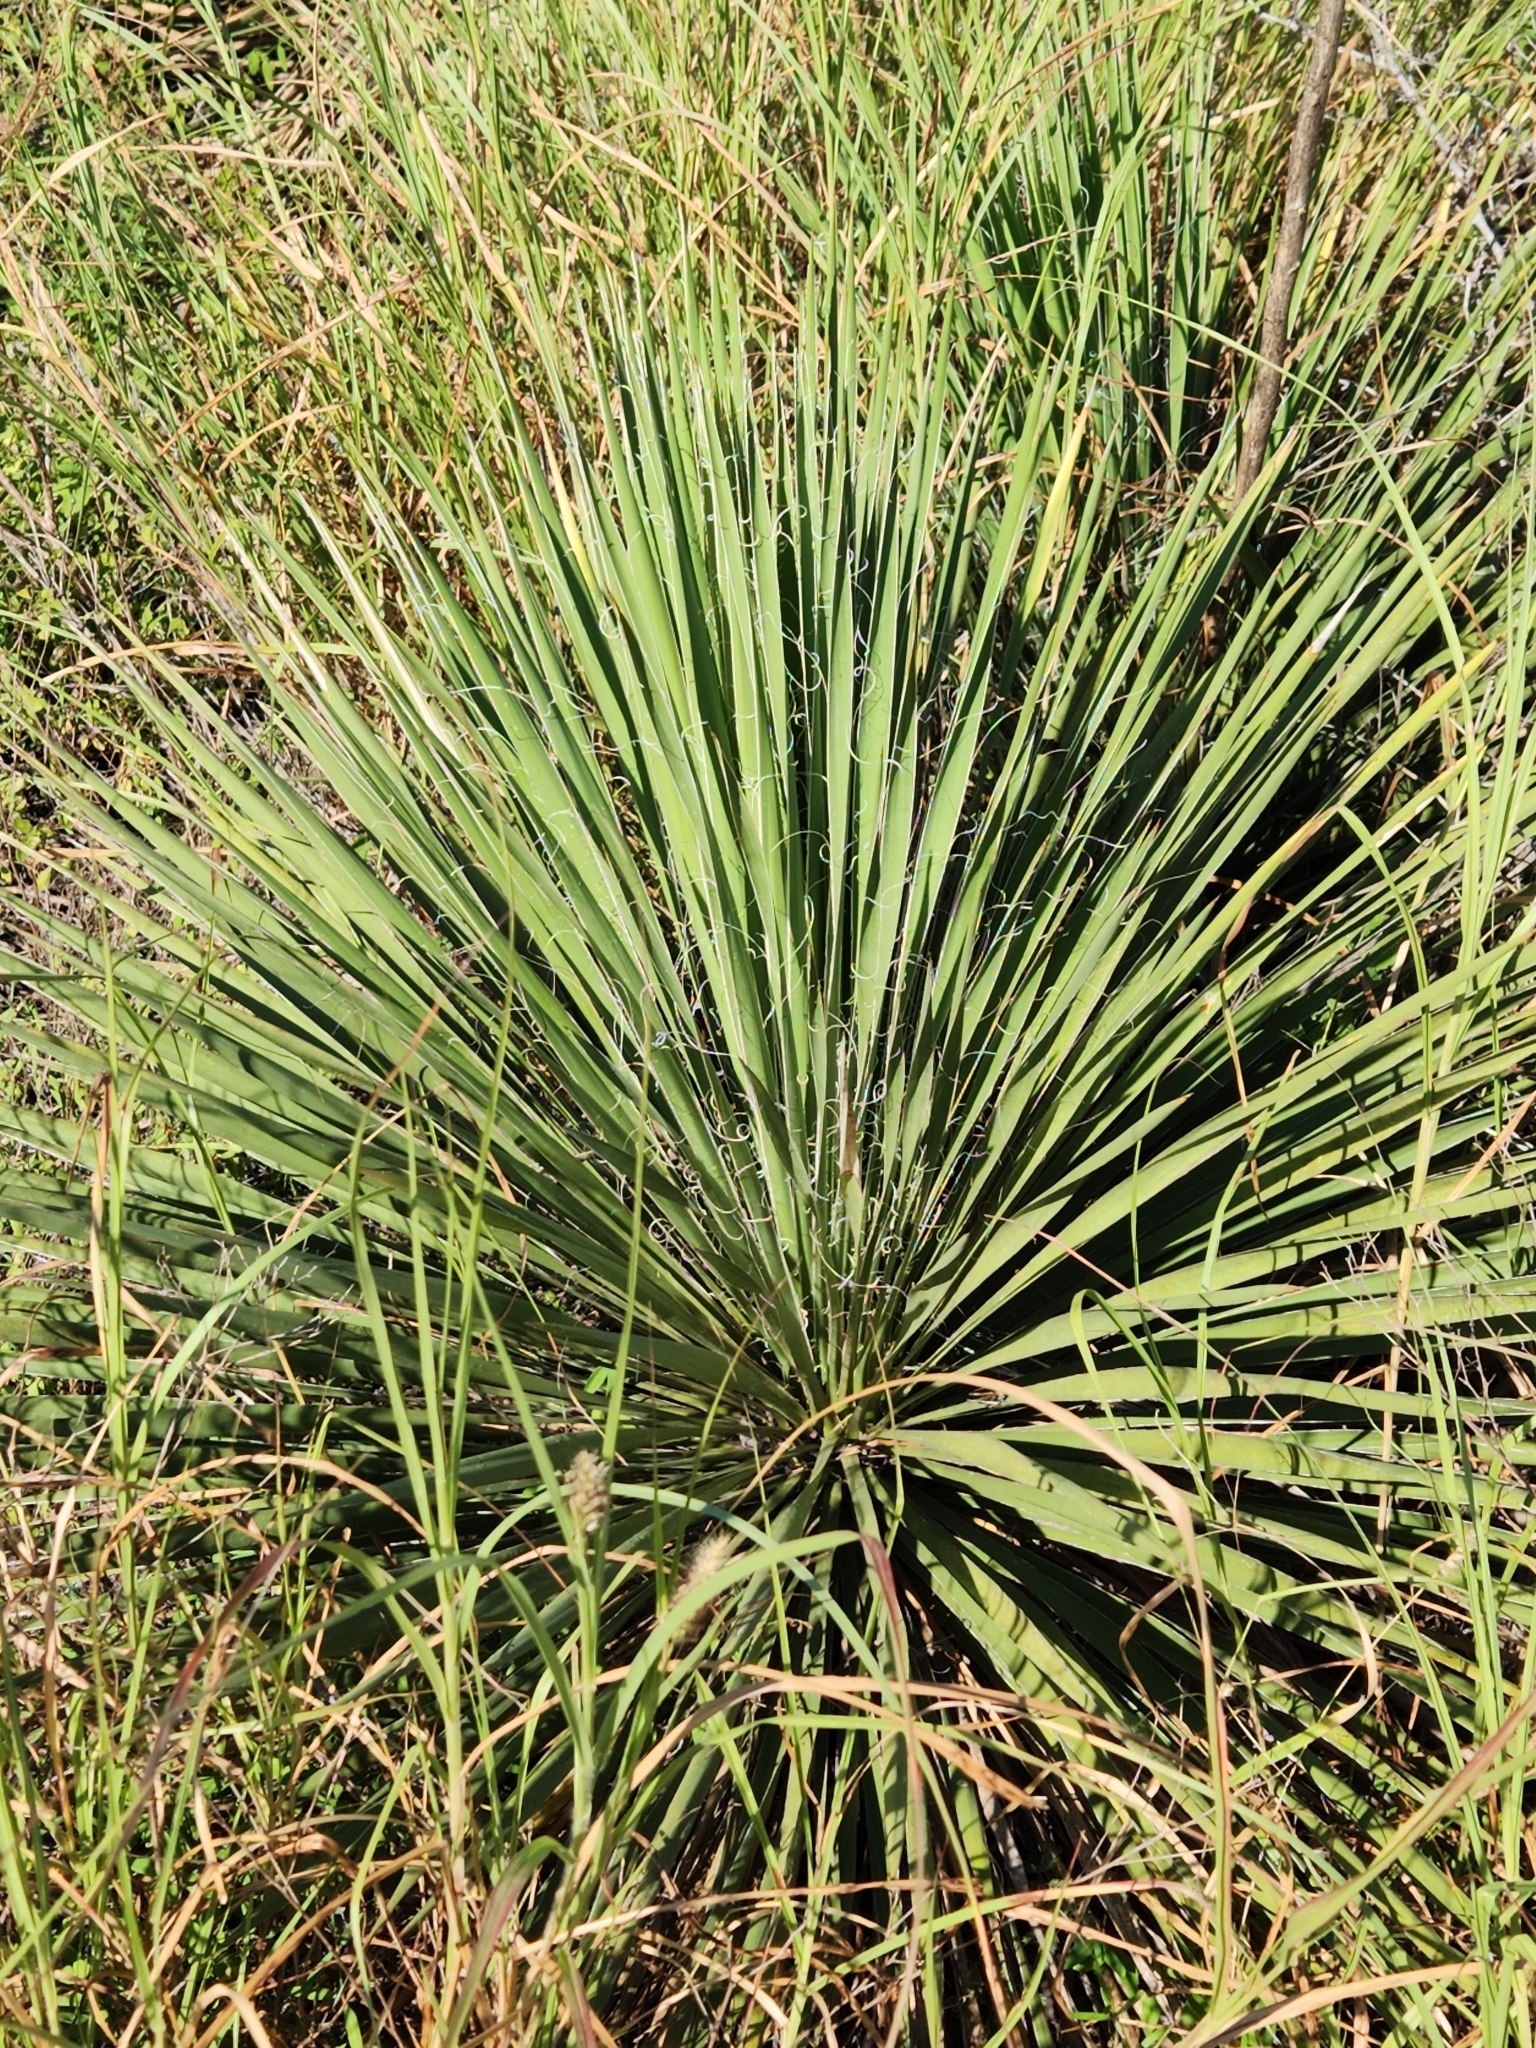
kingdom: Plantae
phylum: Tracheophyta
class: Liliopsida
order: Asparagales
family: Asparagaceae
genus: Yucca
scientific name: Yucca constricta
